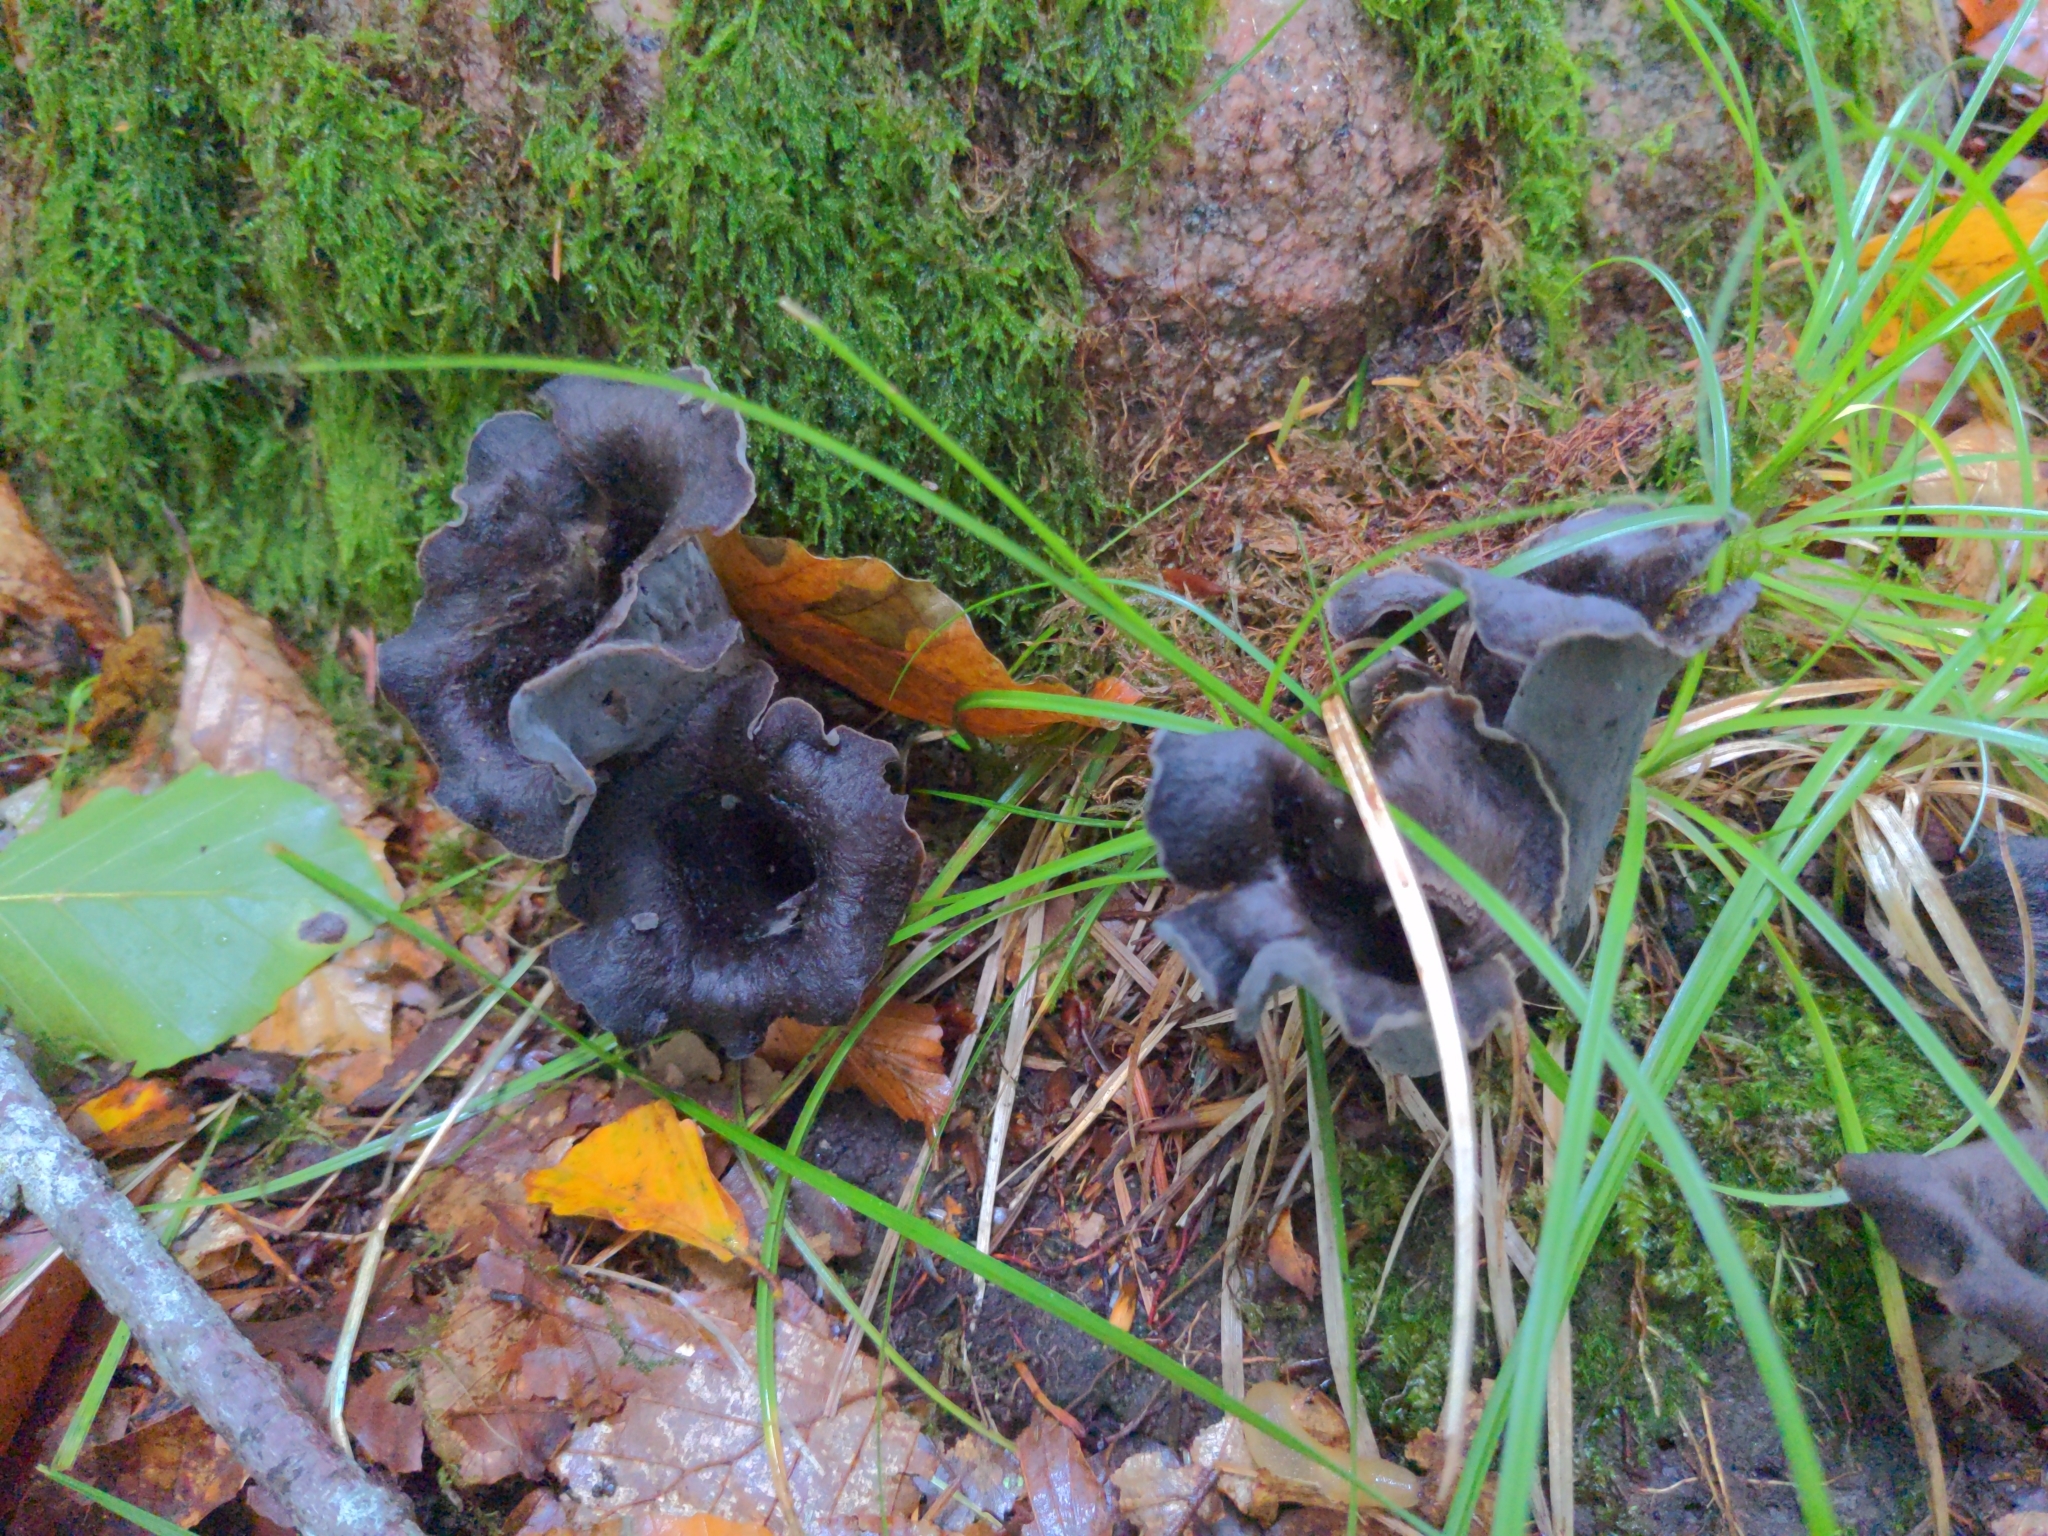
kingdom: Fungi
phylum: Basidiomycota
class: Agaricomycetes
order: Cantharellales
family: Hydnaceae
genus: Craterellus
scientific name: Craterellus cornucopioides
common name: Horn of plenty
